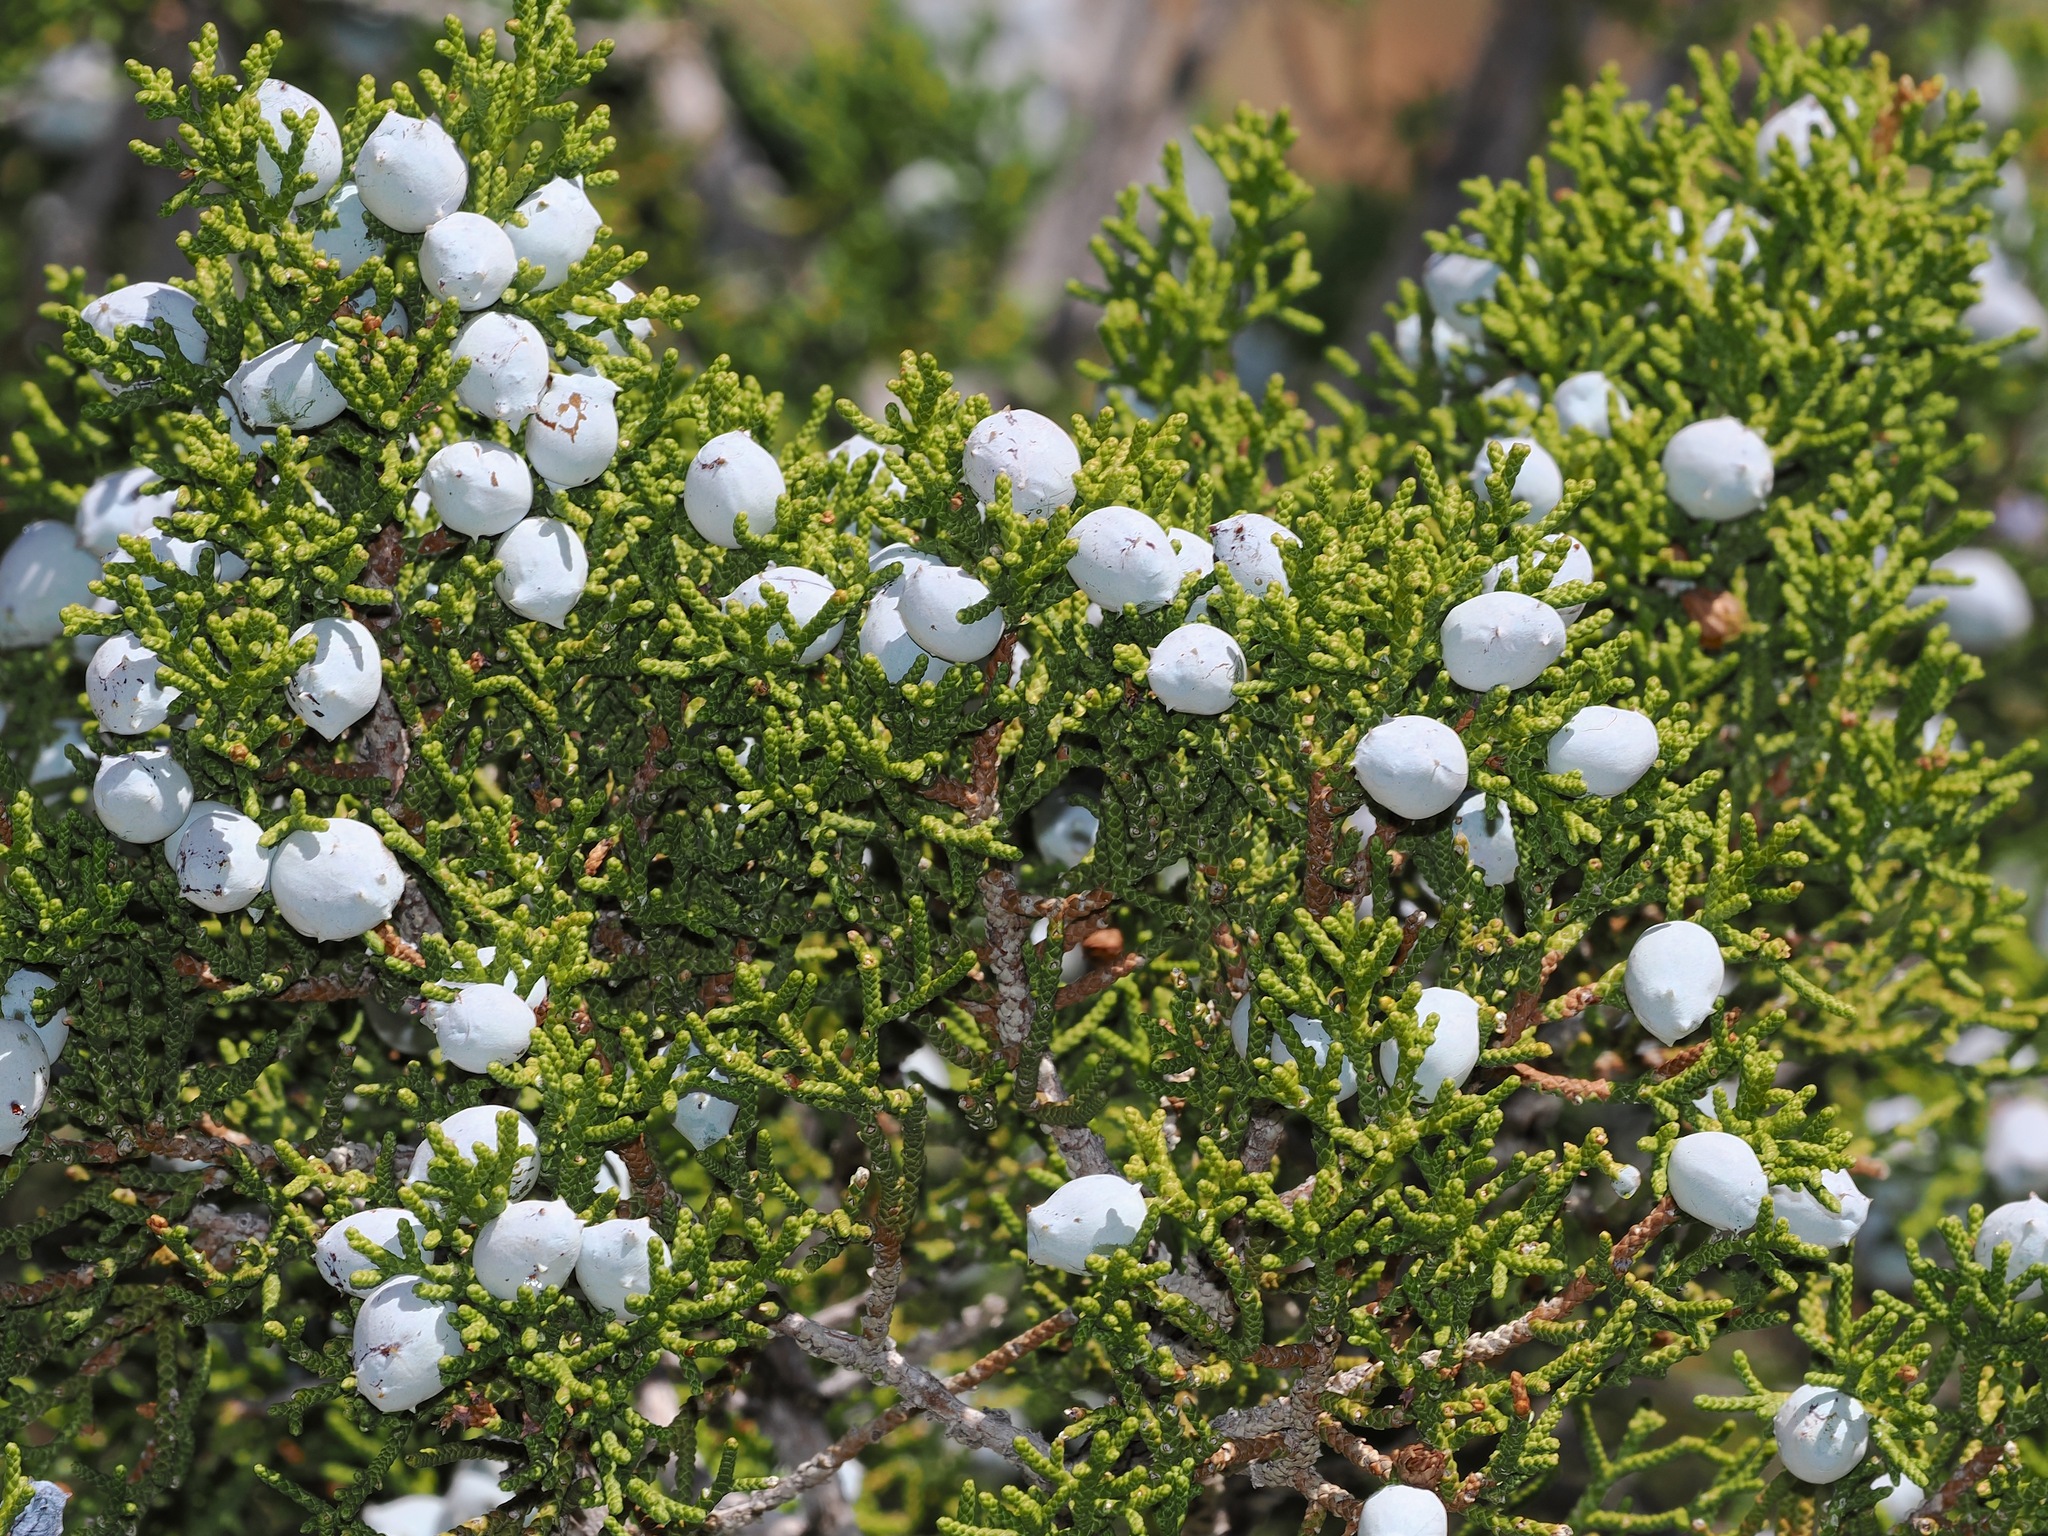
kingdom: Plantae
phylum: Tracheophyta
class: Pinopsida
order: Pinales
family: Cupressaceae
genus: Juniperus
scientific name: Juniperus californica
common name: California juniper
